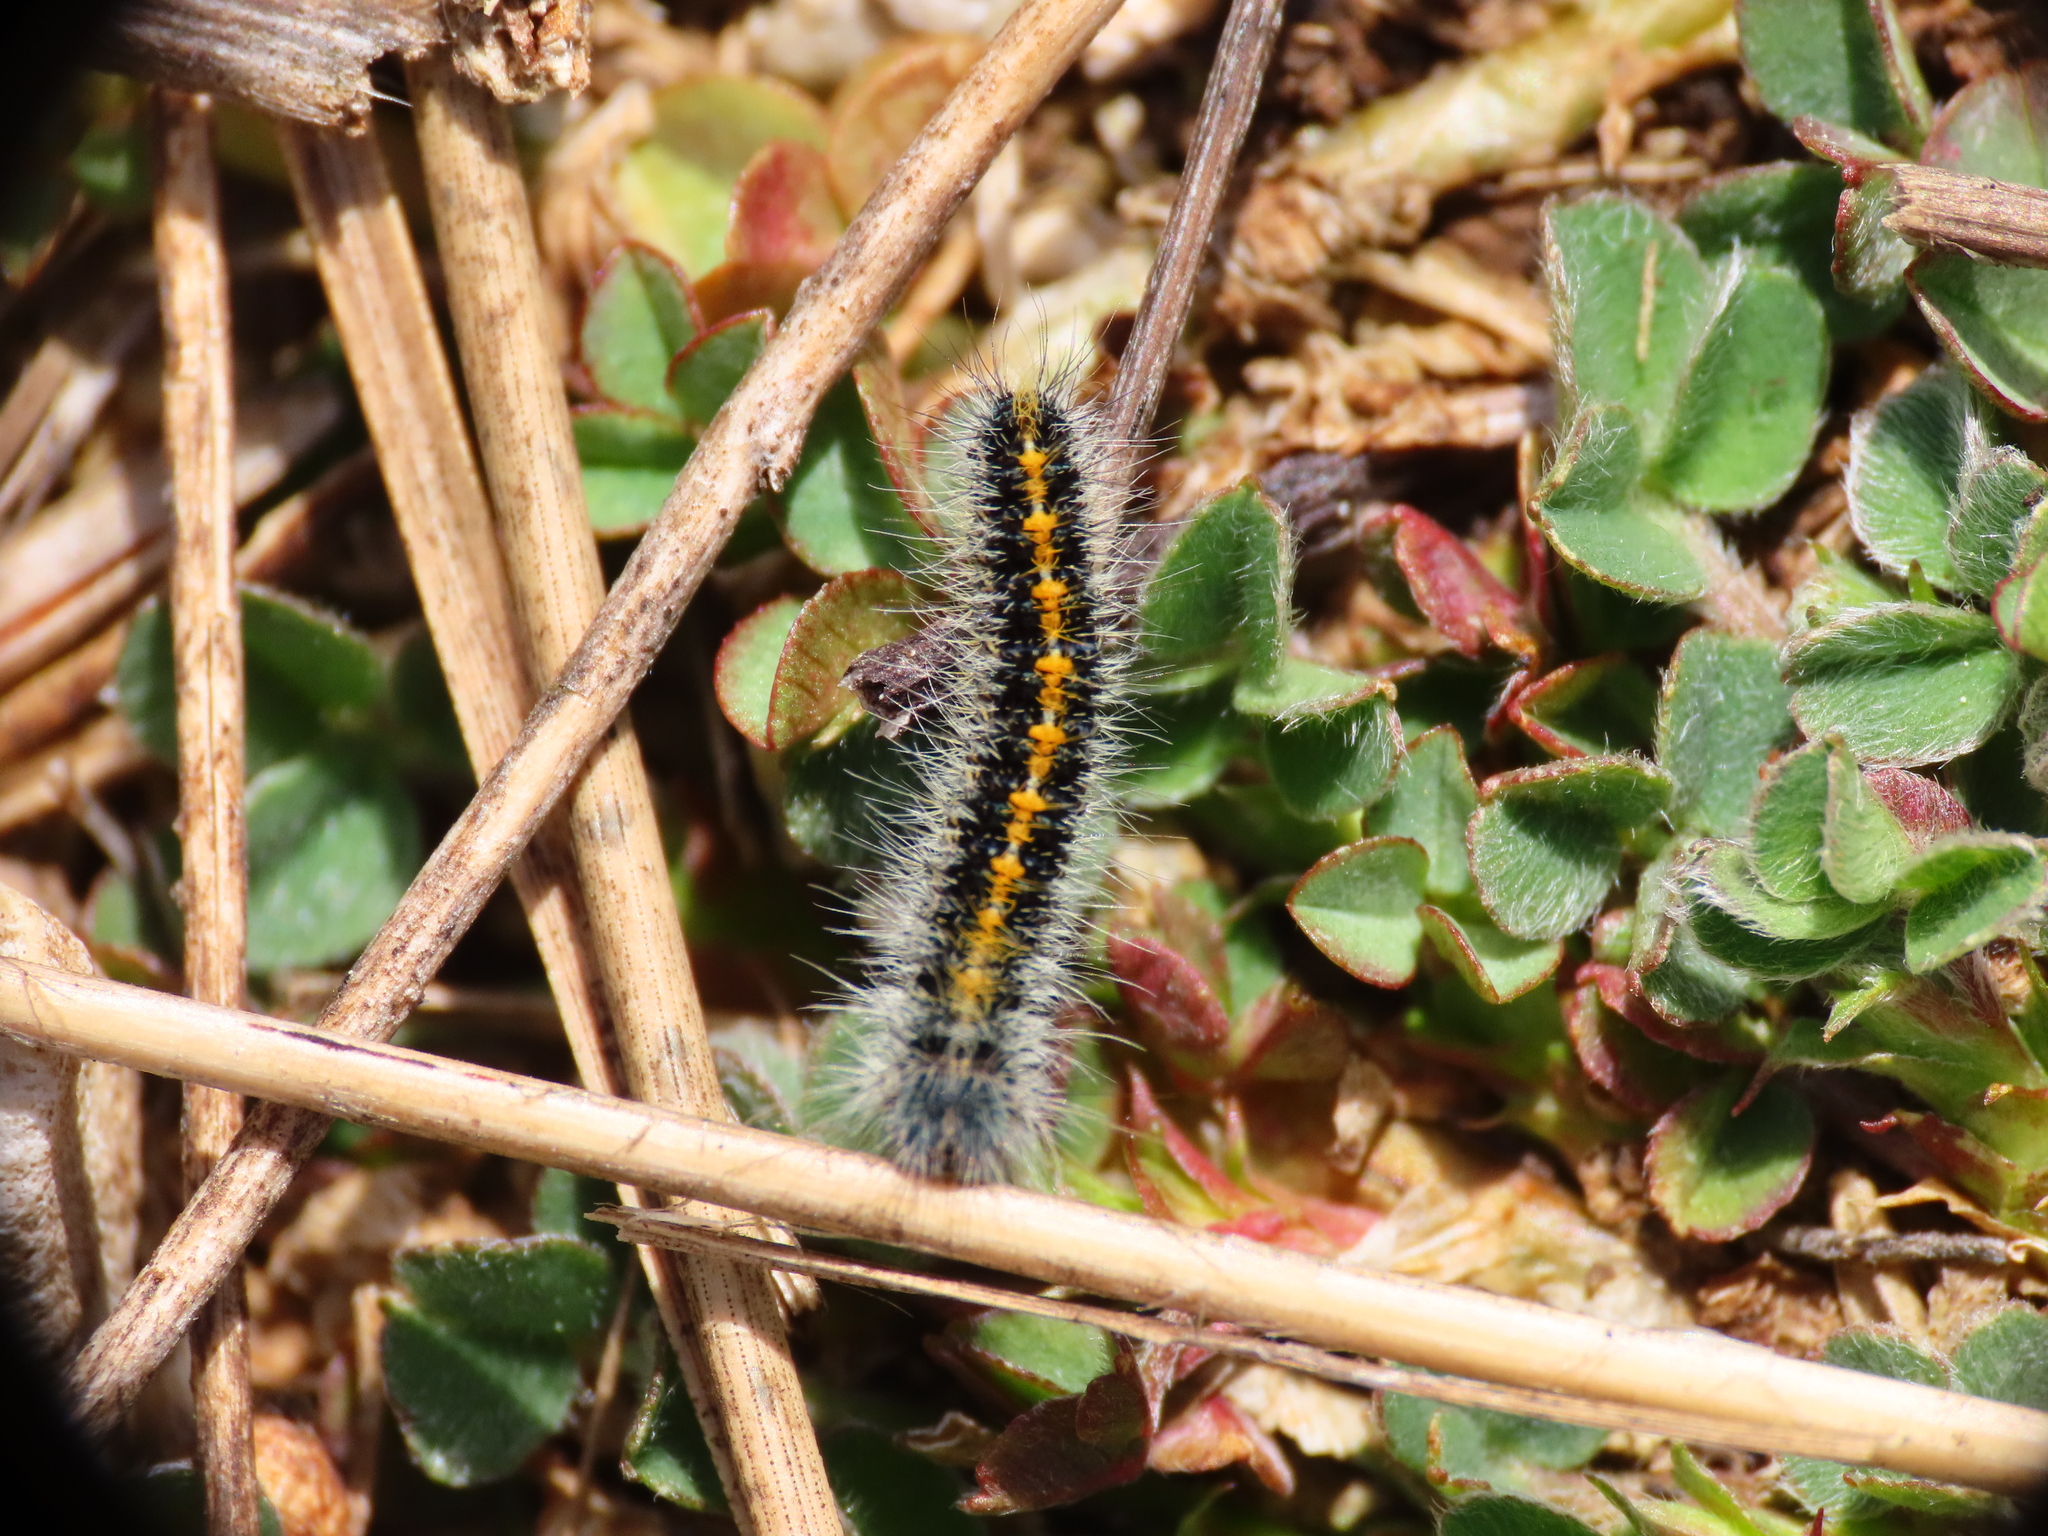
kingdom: Animalia
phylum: Arthropoda
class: Insecta
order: Lepidoptera
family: Lasiocampidae
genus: Lasiocampa
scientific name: Lasiocampa trifolii
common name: Grass eggar
